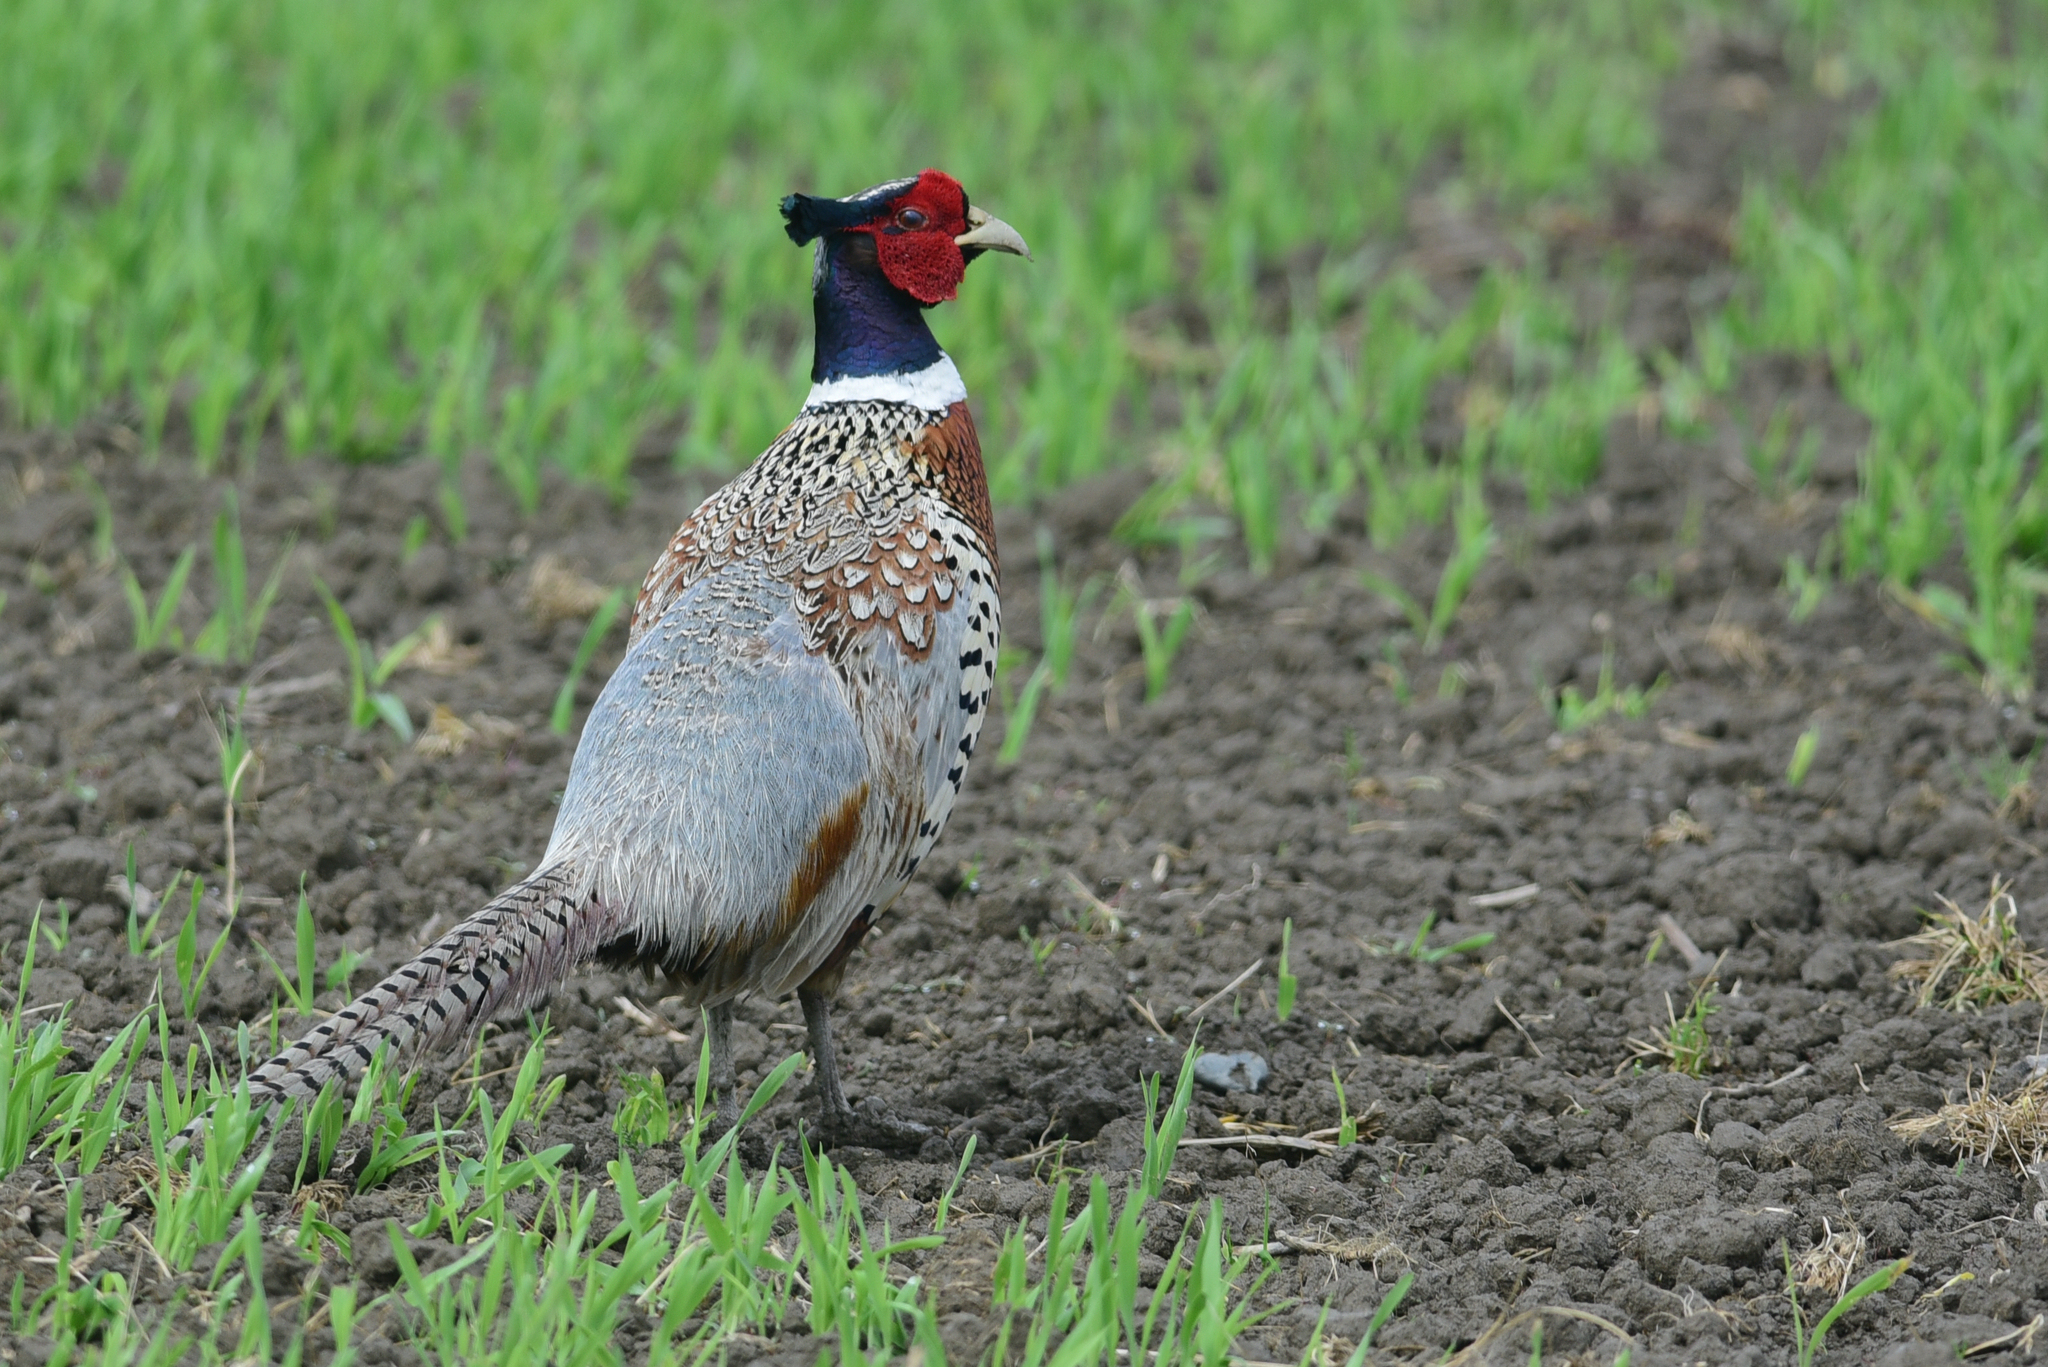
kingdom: Animalia
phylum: Chordata
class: Aves
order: Galliformes
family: Phasianidae
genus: Phasianus
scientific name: Phasianus colchicus
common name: Common pheasant
